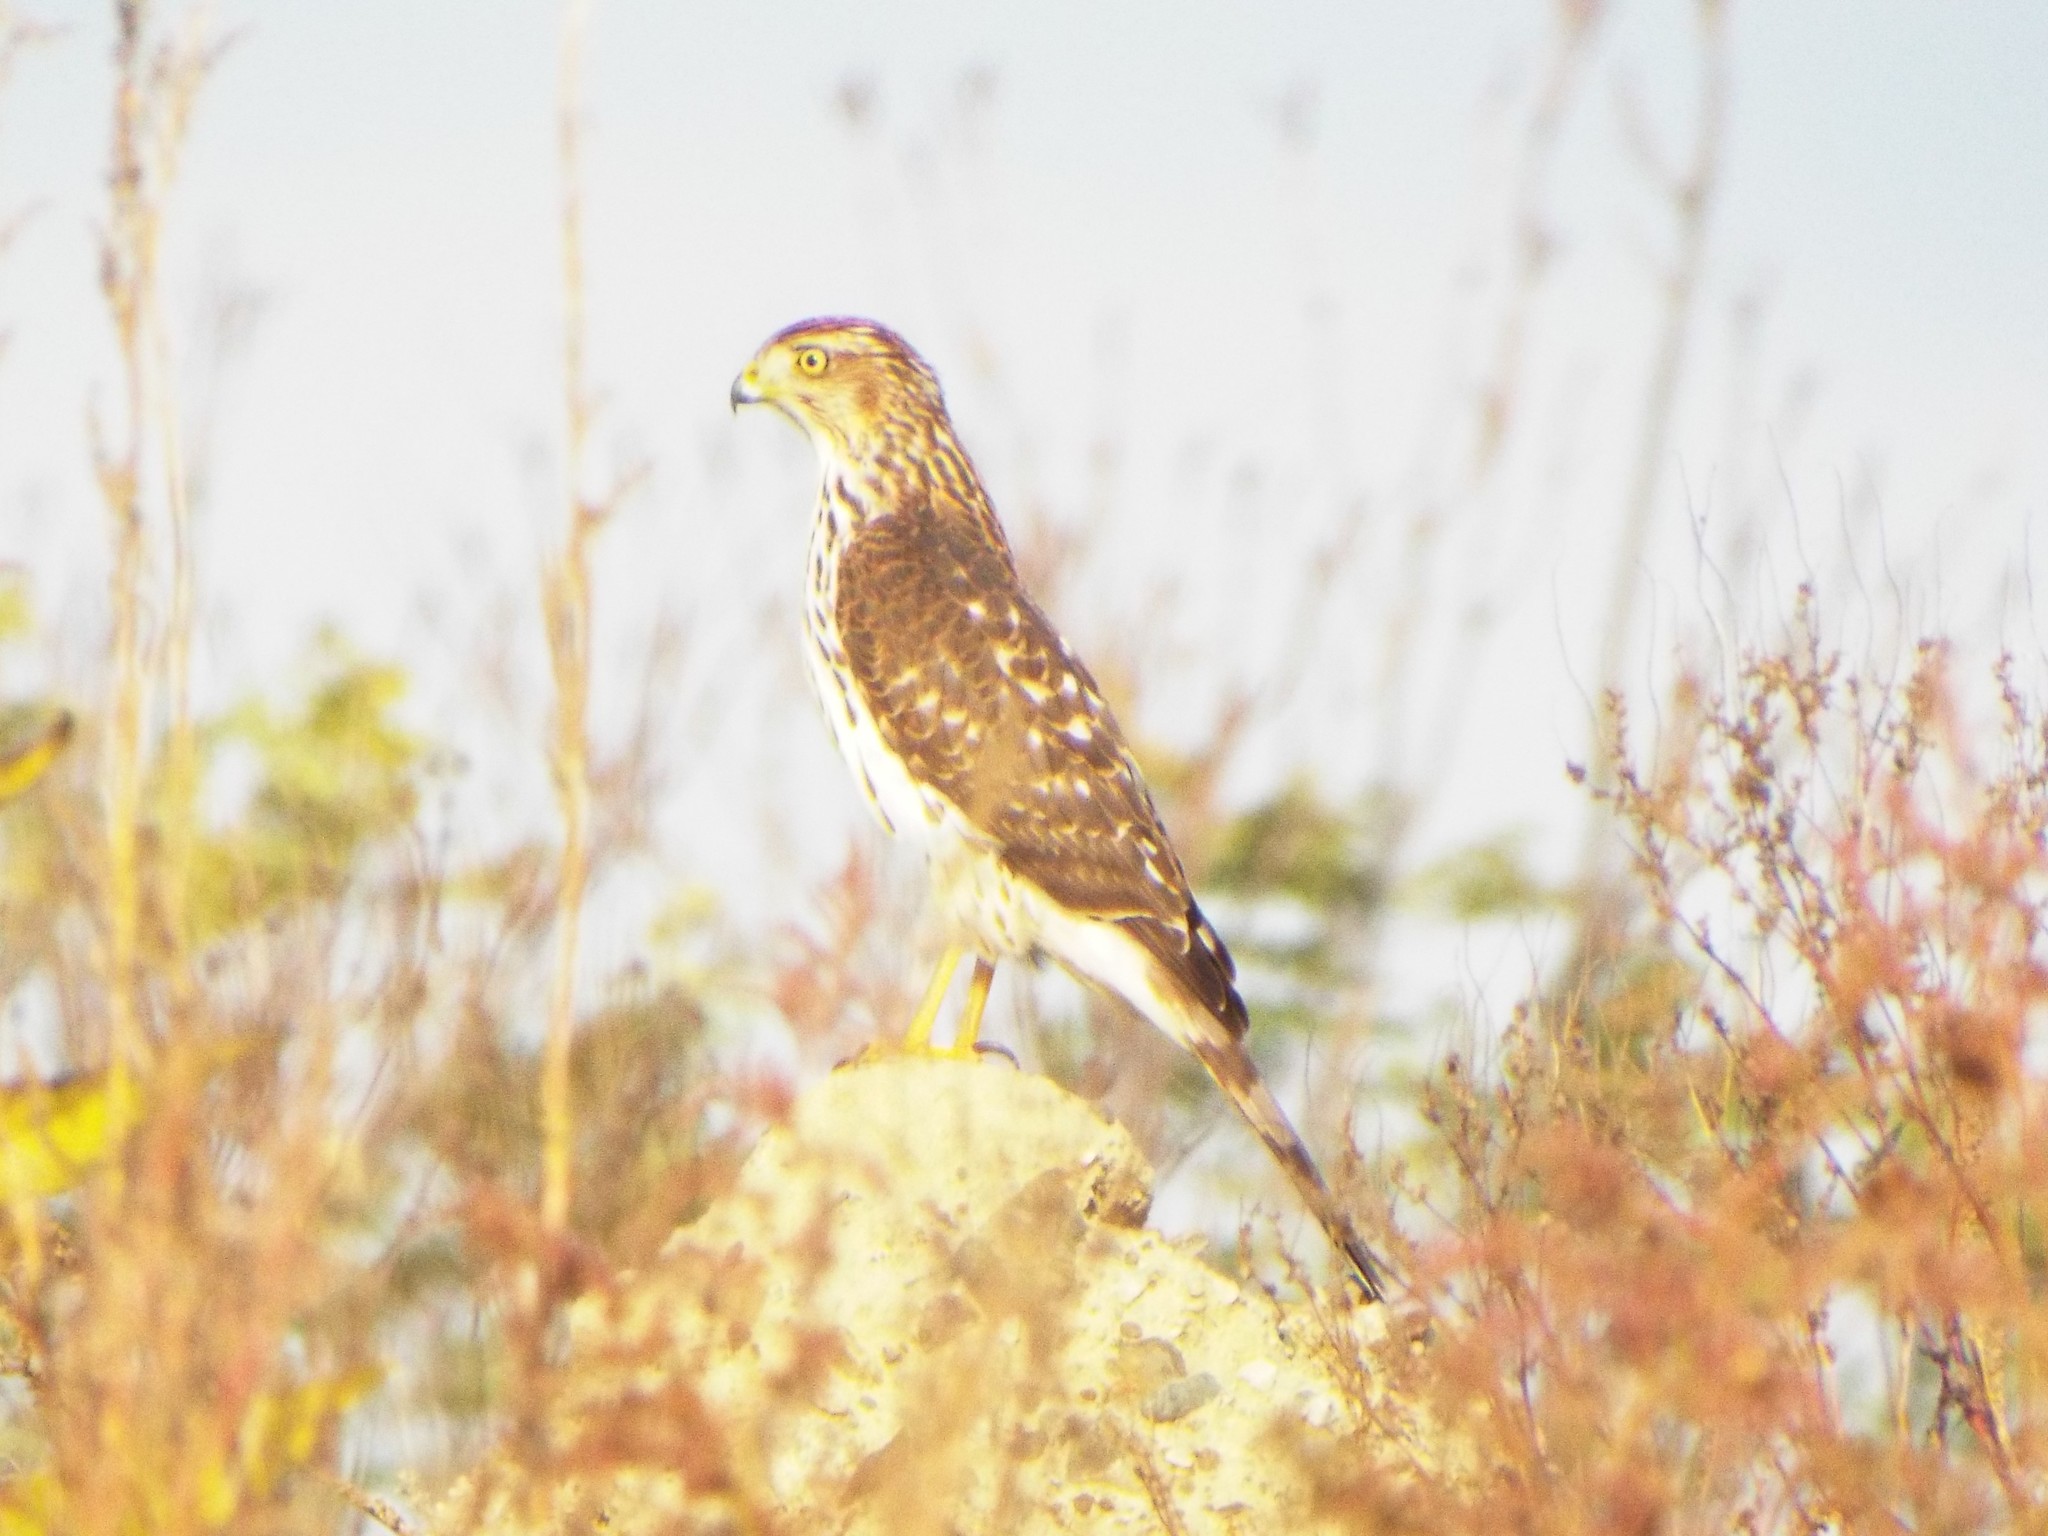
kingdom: Animalia
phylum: Chordata
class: Aves
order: Accipitriformes
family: Accipitridae
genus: Accipiter
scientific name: Accipiter cooperii
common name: Cooper's hawk
